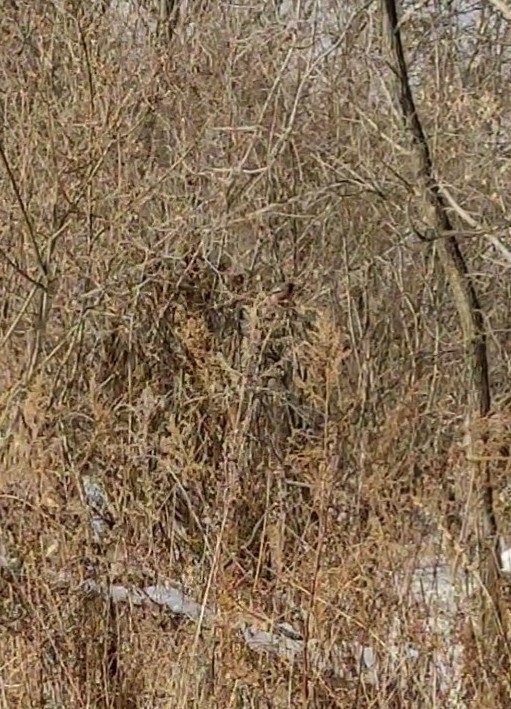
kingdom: Animalia
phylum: Chordata
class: Aves
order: Passeriformes
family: Fringillidae
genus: Carpodacus
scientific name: Carpodacus sibiricus
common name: Long-tailed rosefinch
